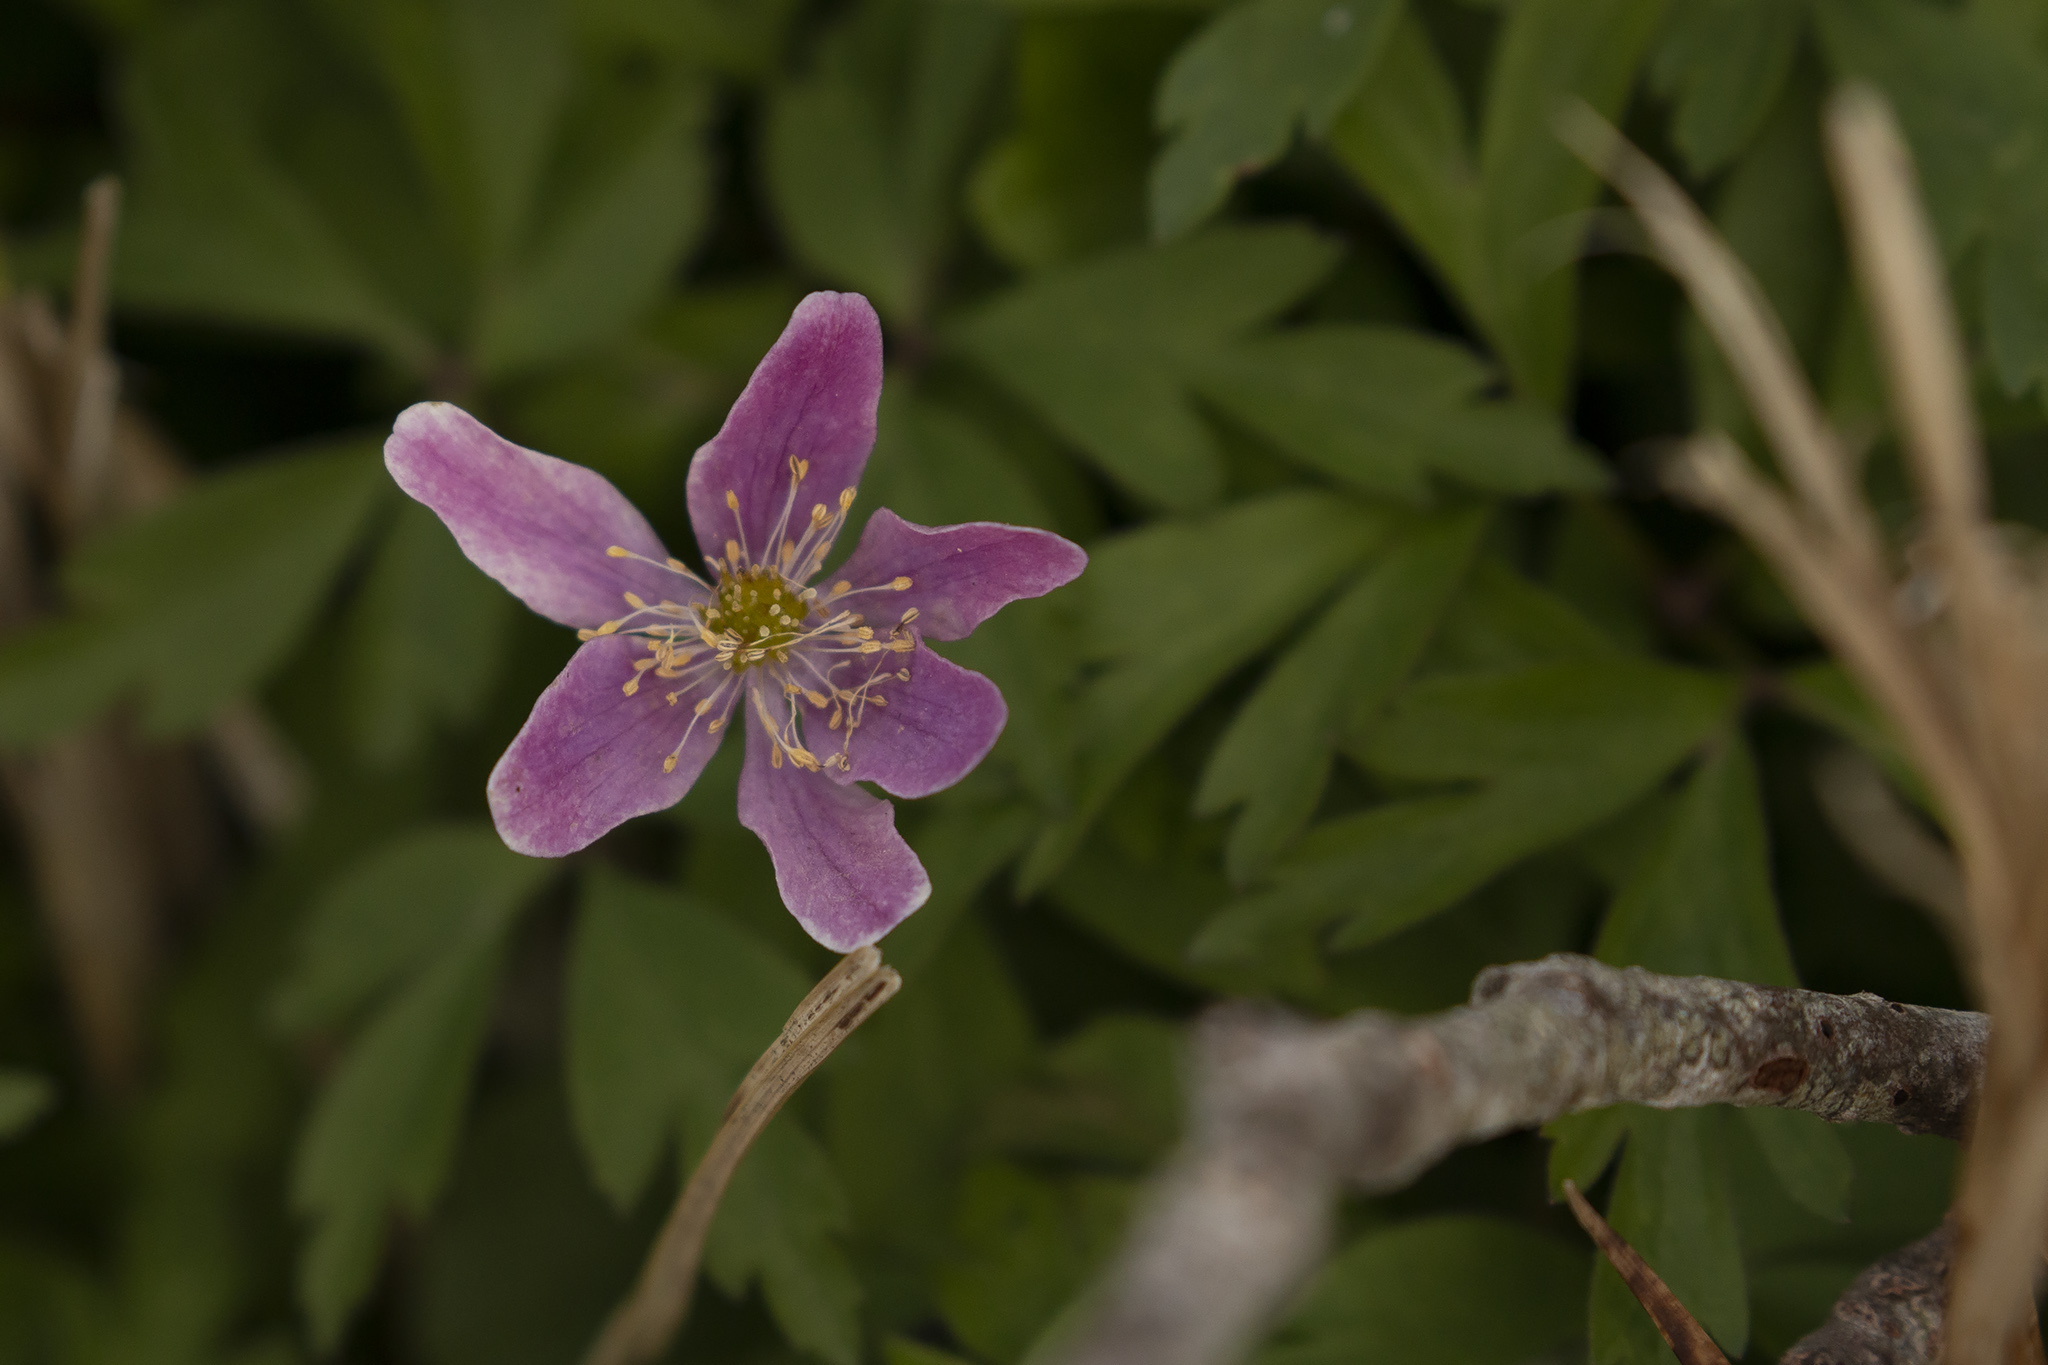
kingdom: Plantae
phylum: Tracheophyta
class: Magnoliopsida
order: Ranunculales
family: Ranunculaceae
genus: Anemone
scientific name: Anemone nemorosa
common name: Wood anemone
